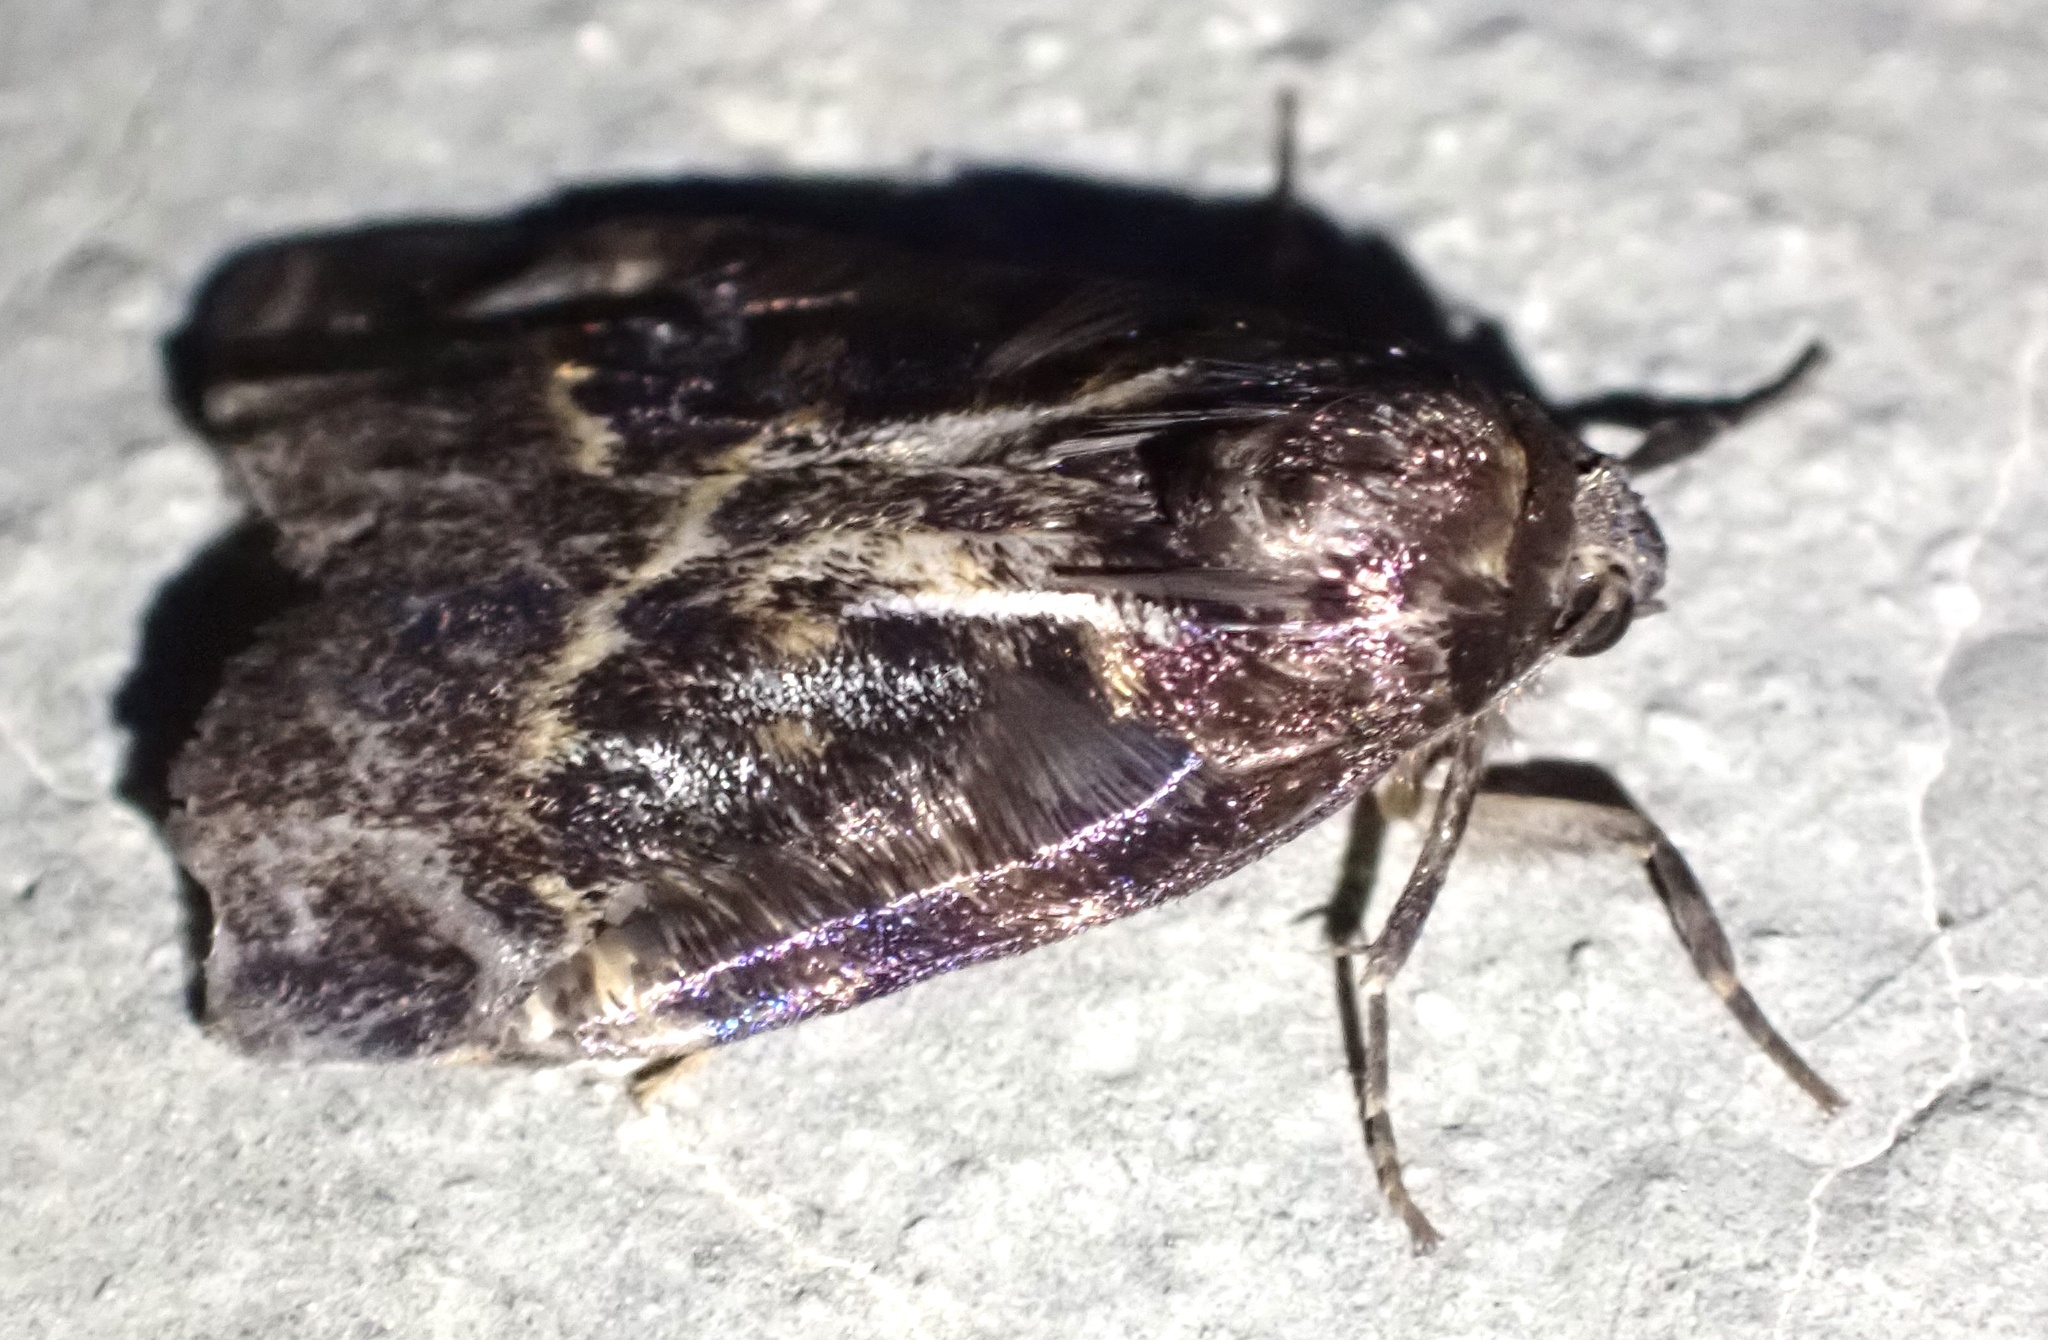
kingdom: Animalia
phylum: Arthropoda
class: Insecta
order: Lepidoptera
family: Erebidae
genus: Cyana
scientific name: Cyana brunnea
